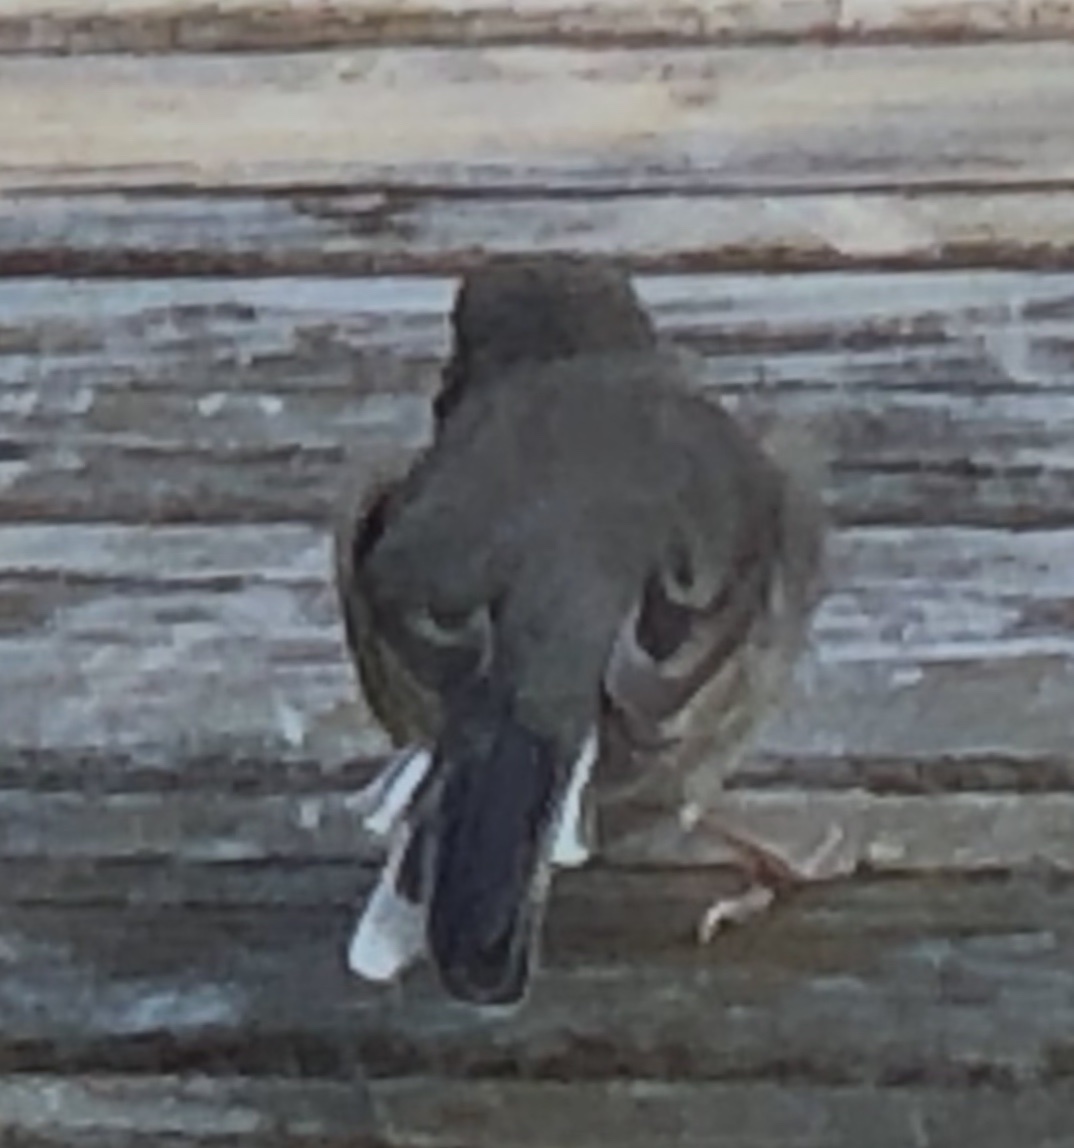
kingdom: Animalia
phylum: Chordata
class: Aves
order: Passeriformes
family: Passerellidae
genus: Junco
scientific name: Junco hyemalis
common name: Dark-eyed junco
